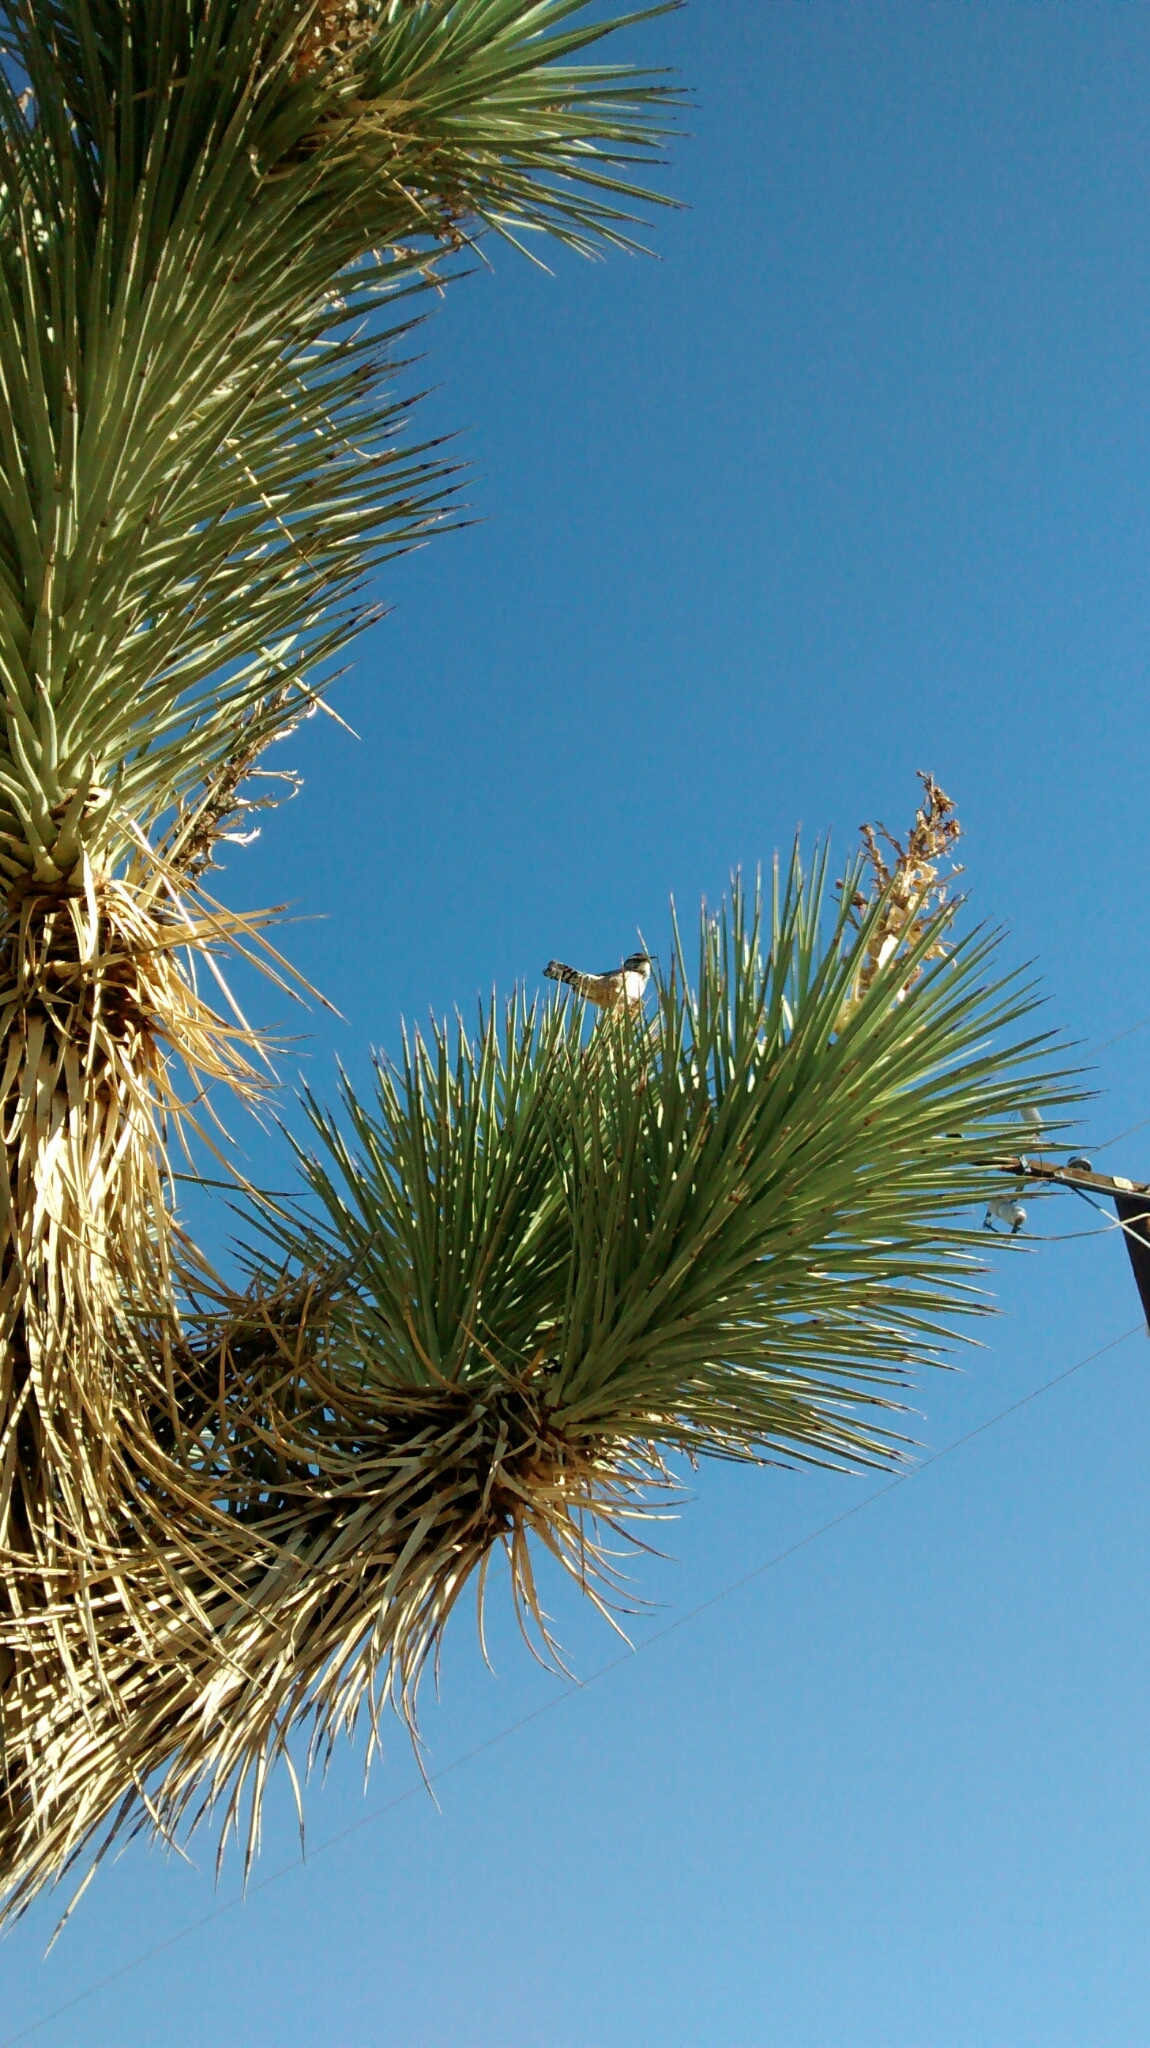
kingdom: Animalia
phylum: Chordata
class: Aves
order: Passeriformes
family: Troglodytidae
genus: Campylorhynchus
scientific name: Campylorhynchus brunneicapillus
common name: Cactus wren
